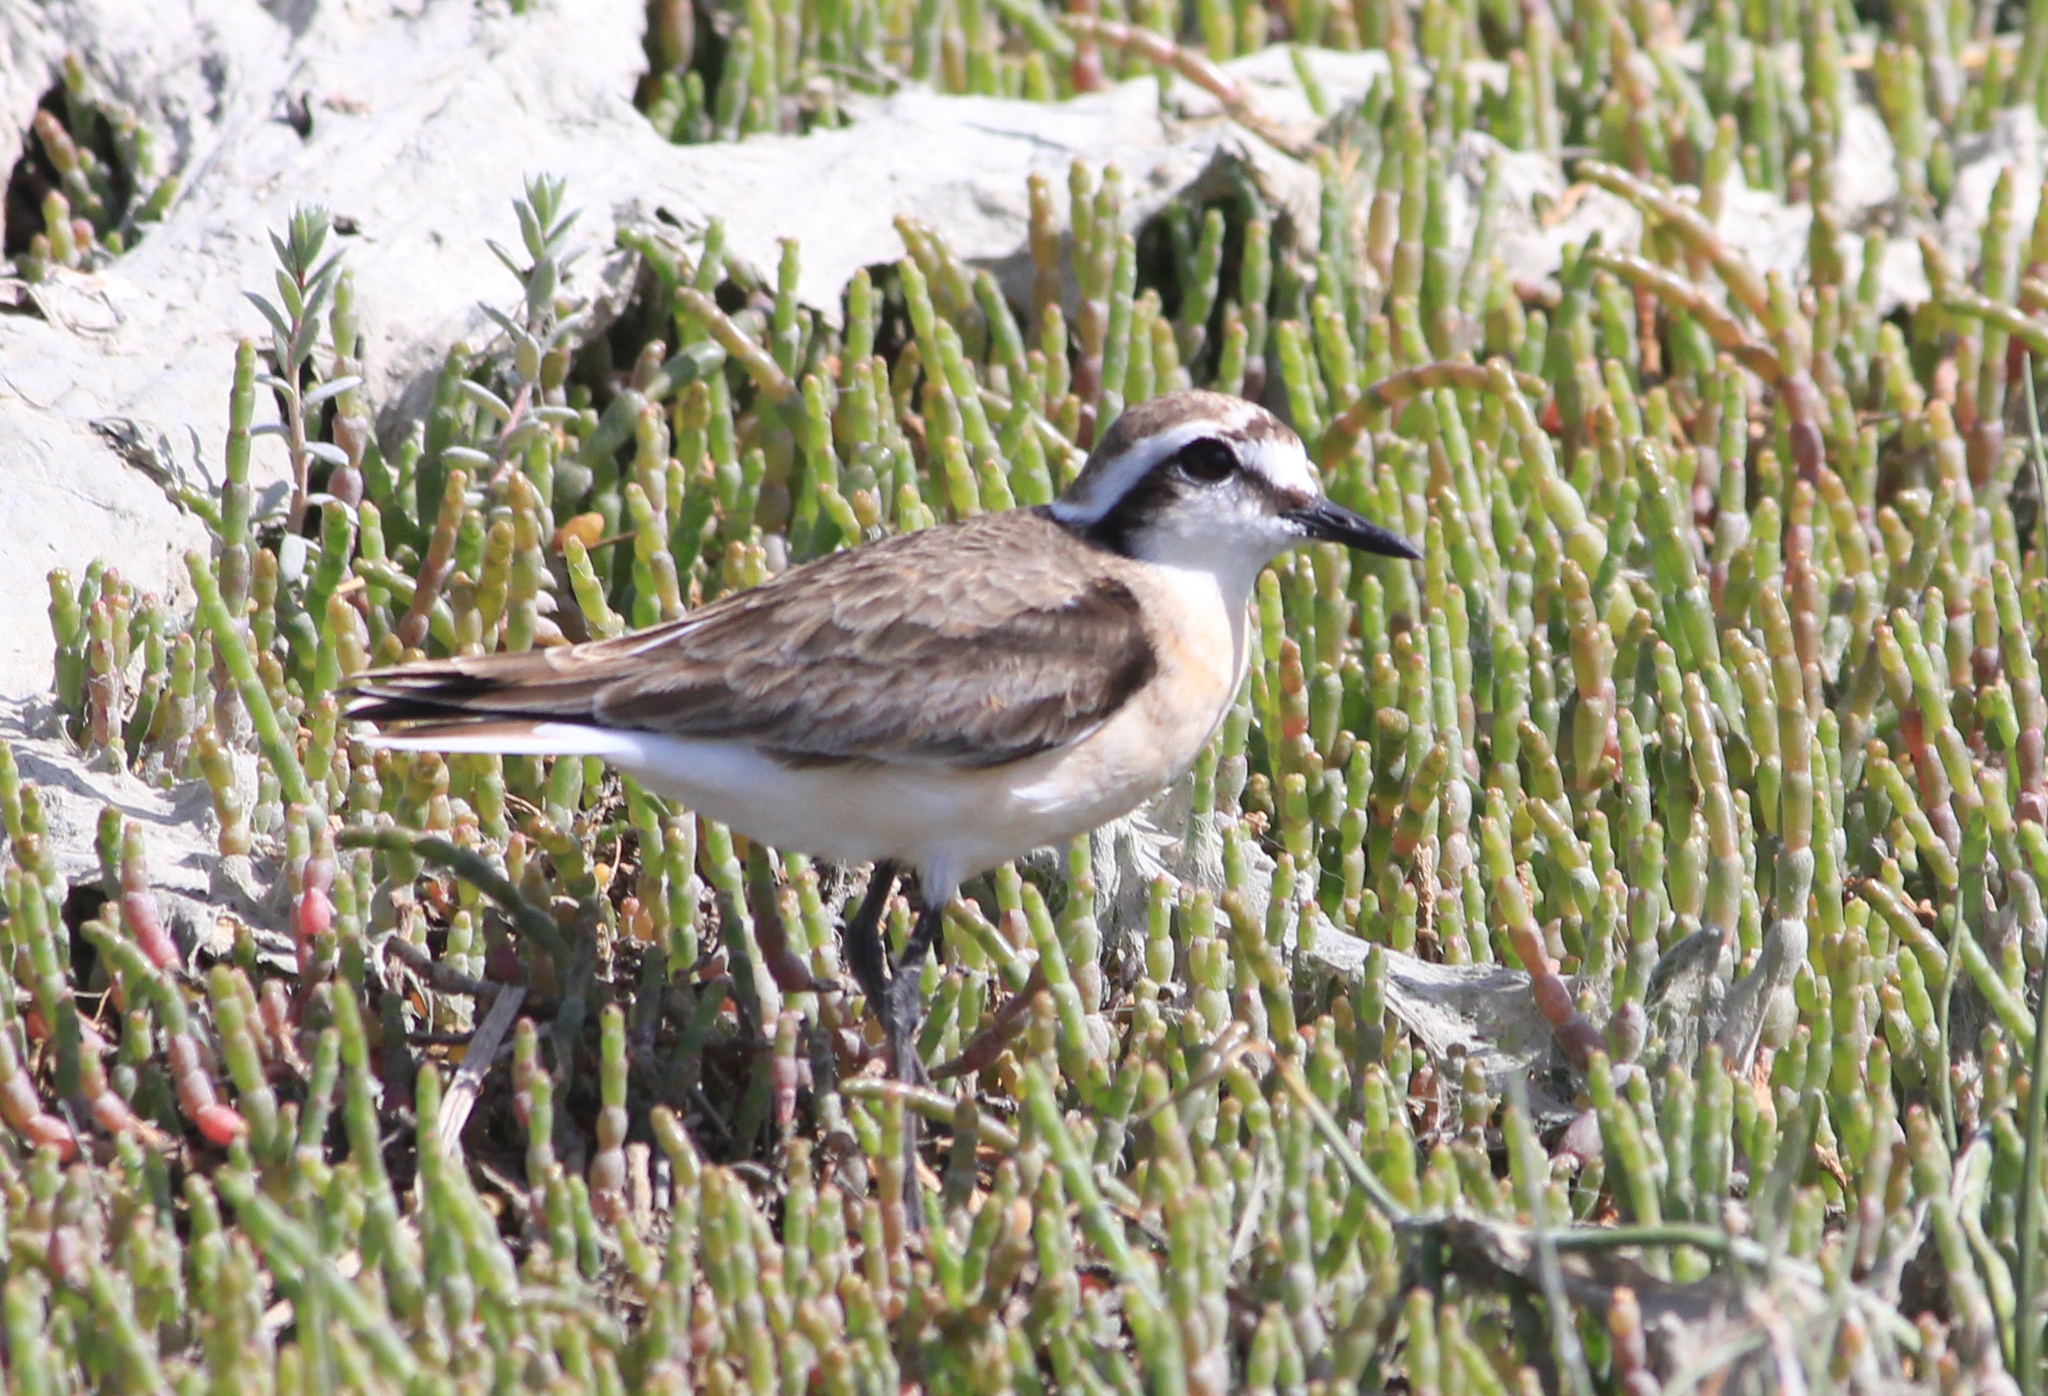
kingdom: Animalia
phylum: Chordata
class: Aves
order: Charadriiformes
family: Charadriidae
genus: Anarhynchus
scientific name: Anarhynchus
